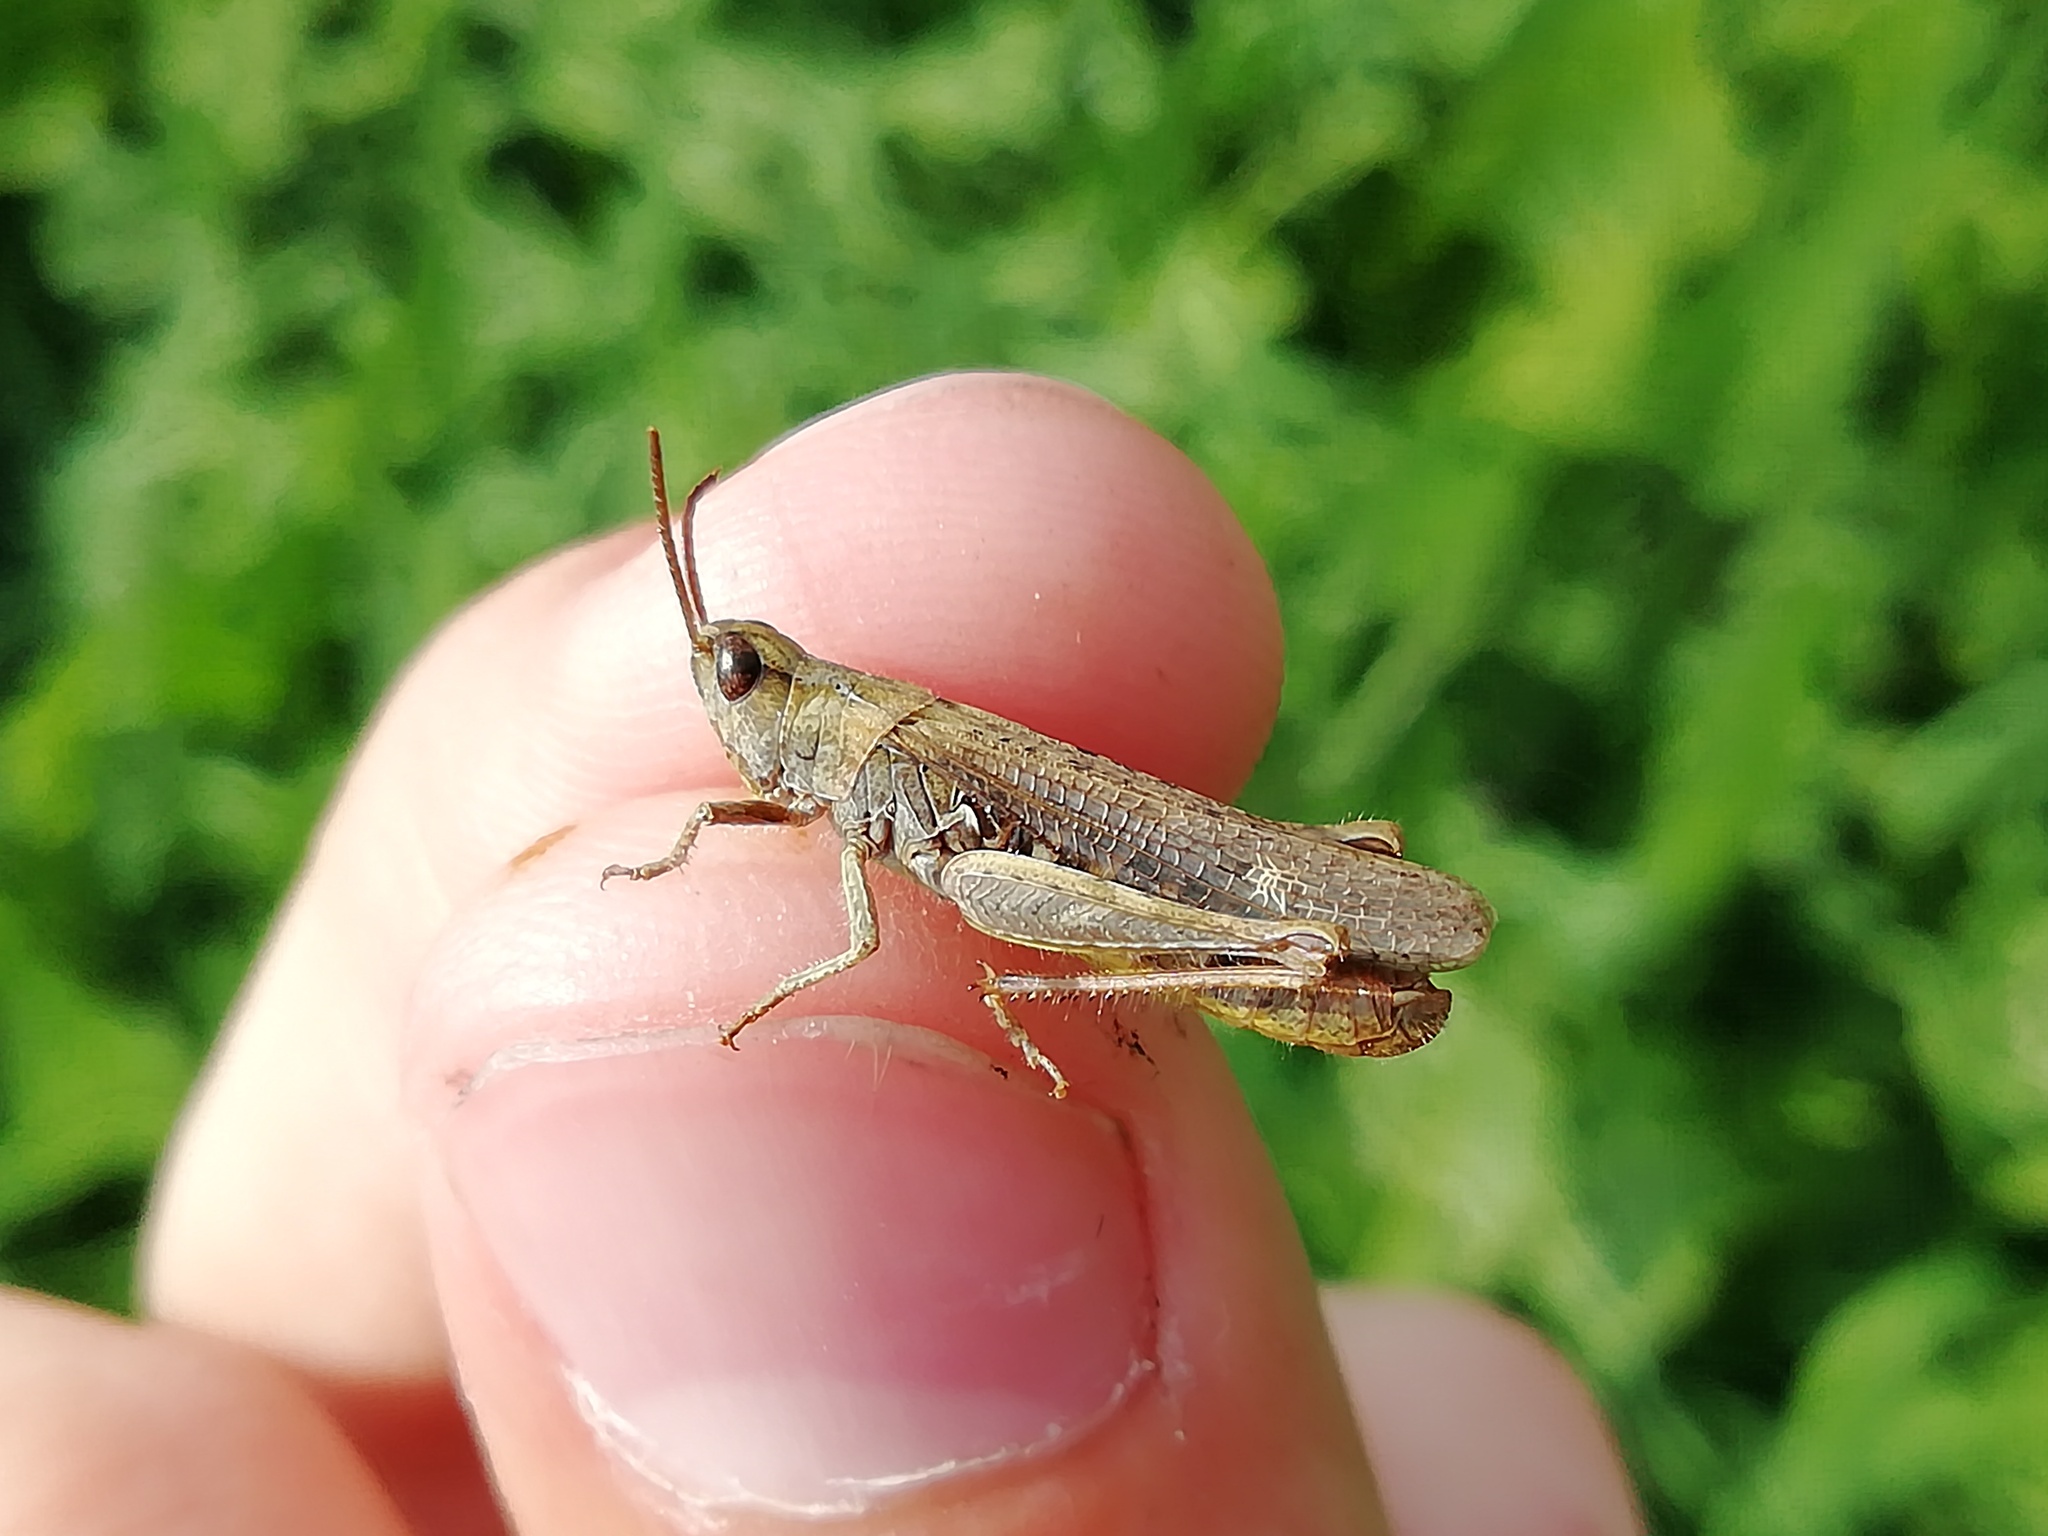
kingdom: Animalia
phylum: Arthropoda
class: Insecta
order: Orthoptera
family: Acrididae
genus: Chorthippus
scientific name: Chorthippus biguttulus
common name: Bow-winged grasshopper
